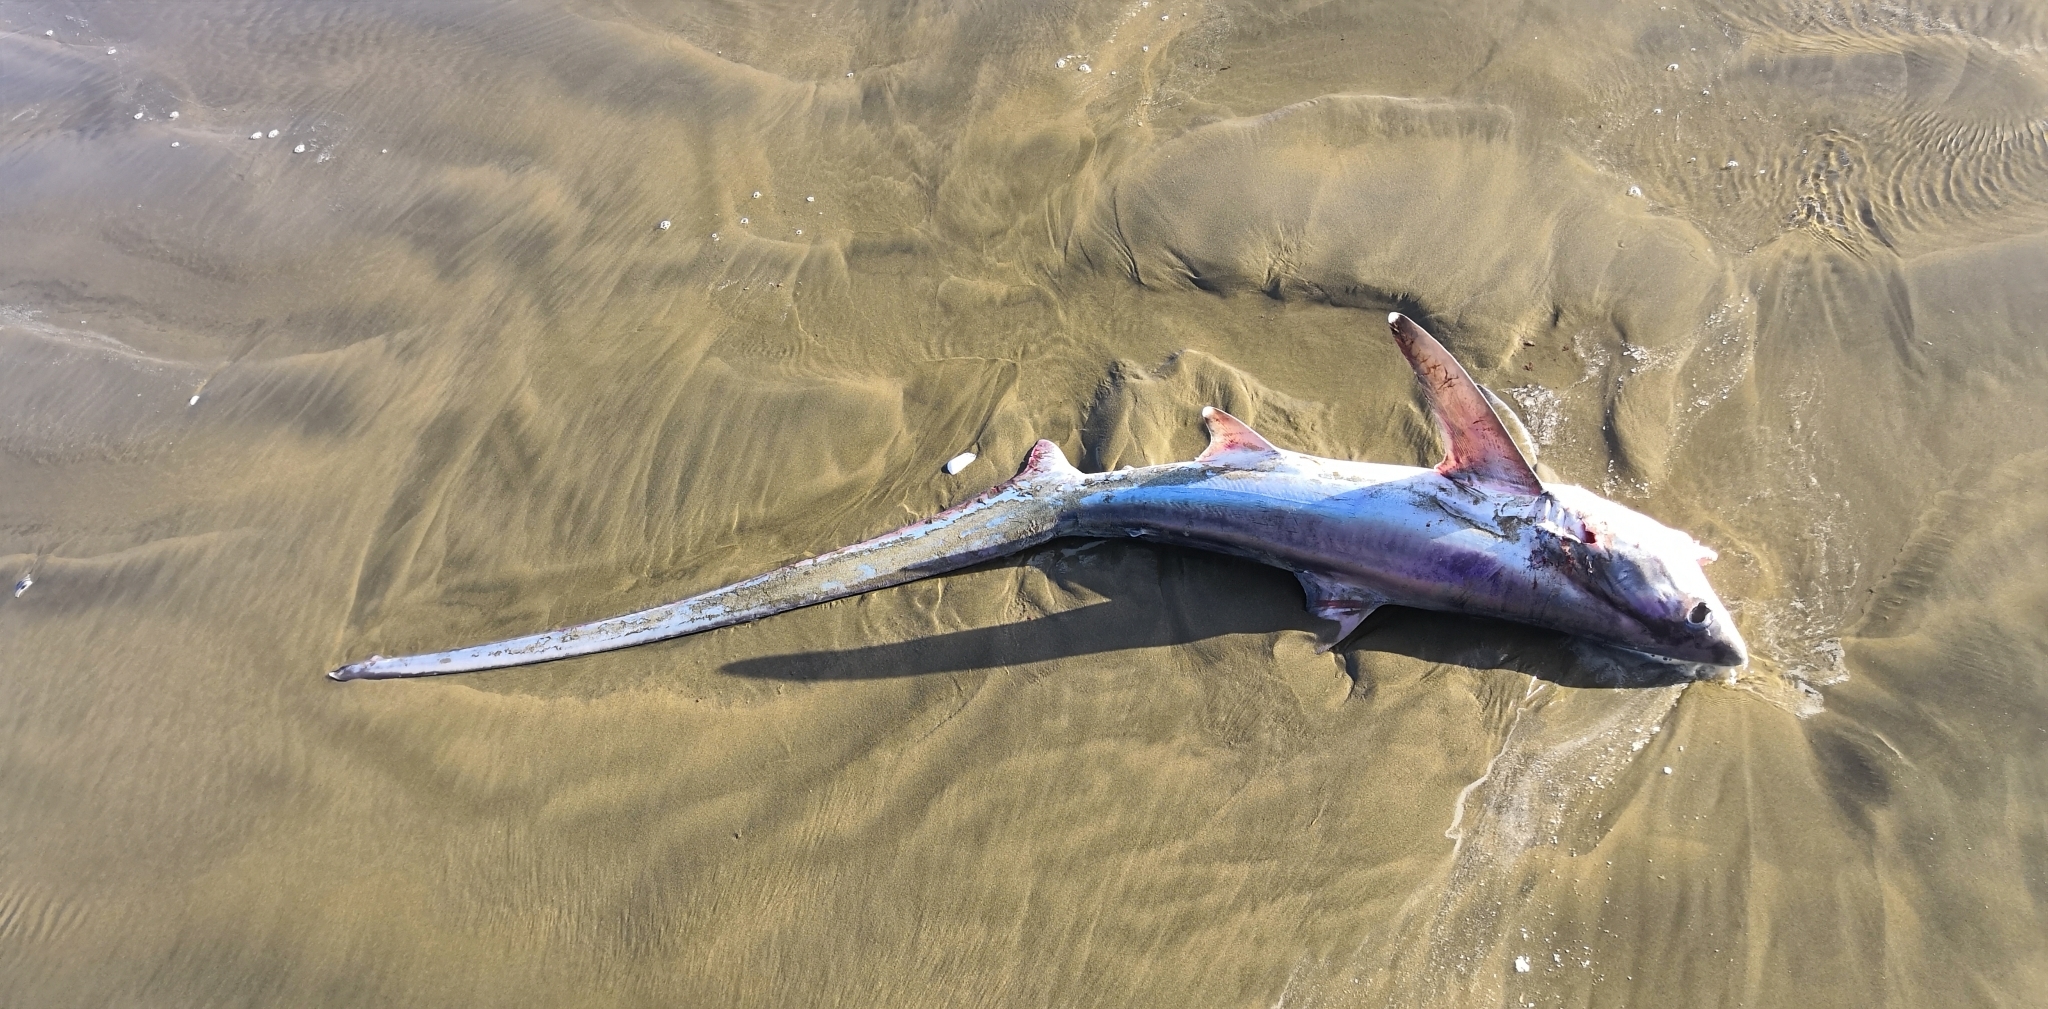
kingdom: Animalia
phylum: Chordata
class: Elasmobranchii
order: Lamniformes
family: Alopiidae
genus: Alopias
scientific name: Alopias vulpinus
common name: Thresher shark
